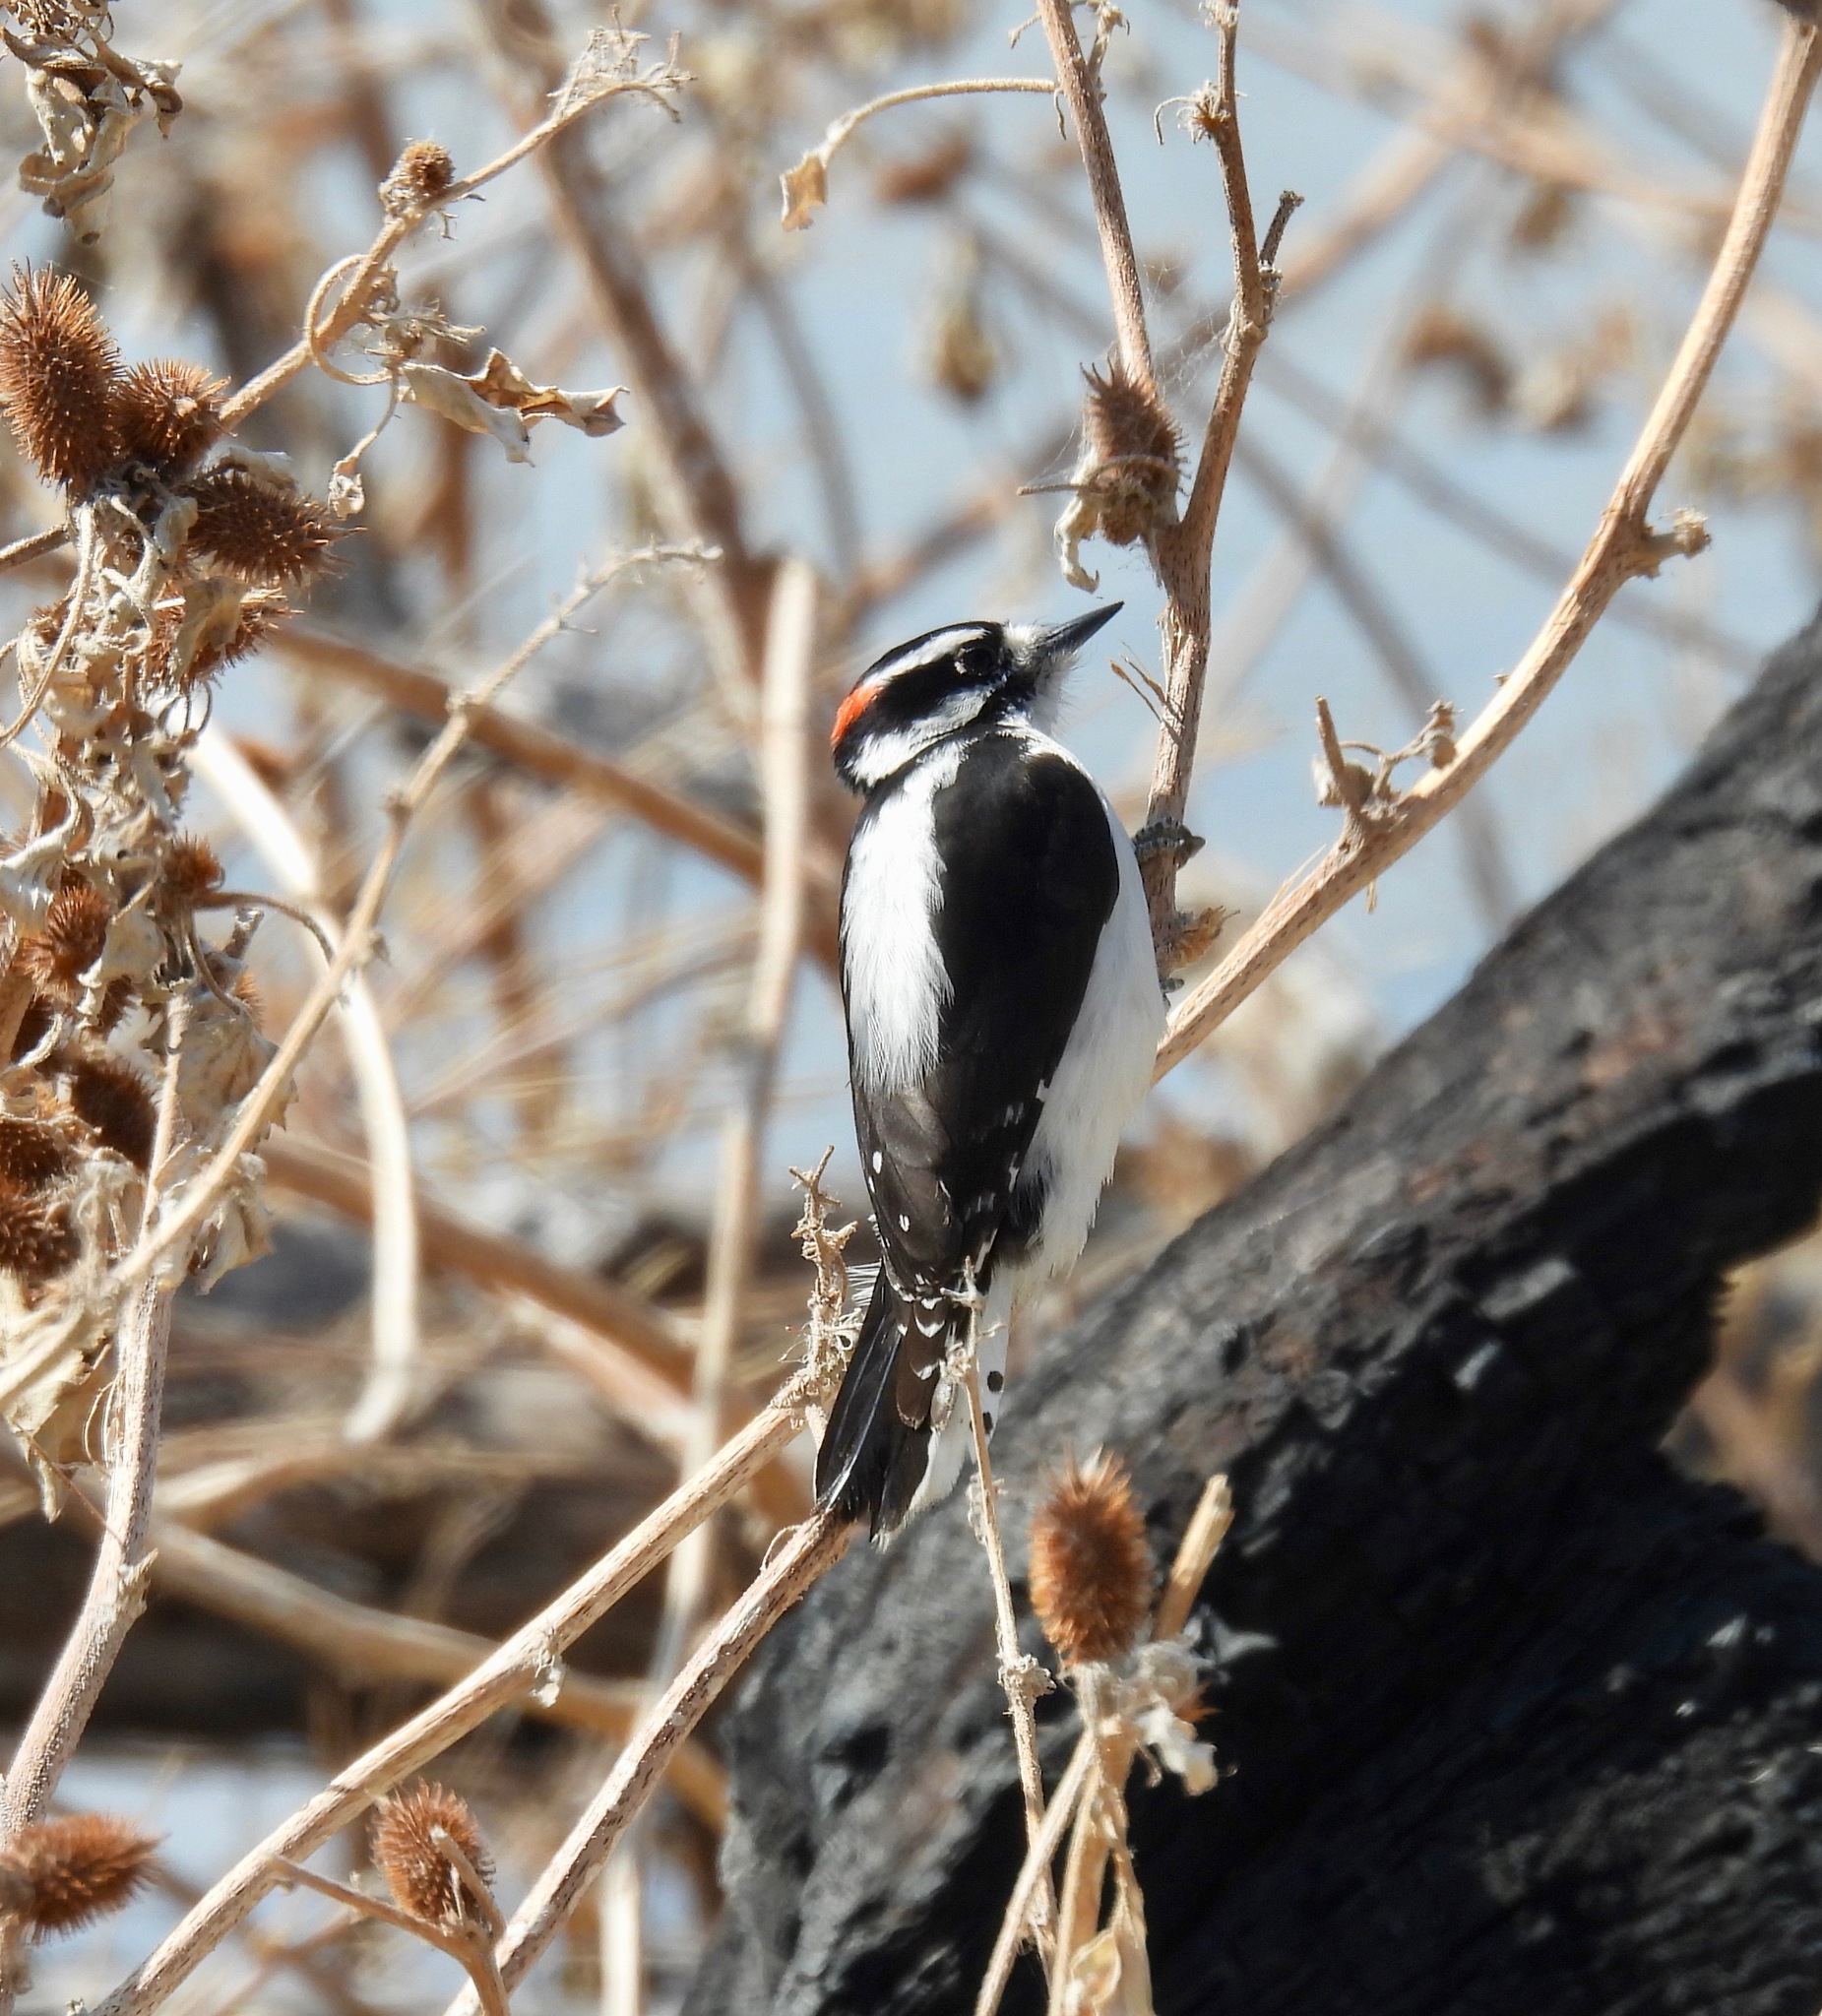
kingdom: Animalia
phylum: Chordata
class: Aves
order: Piciformes
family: Picidae
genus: Dryobates
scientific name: Dryobates pubescens
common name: Downy woodpecker
